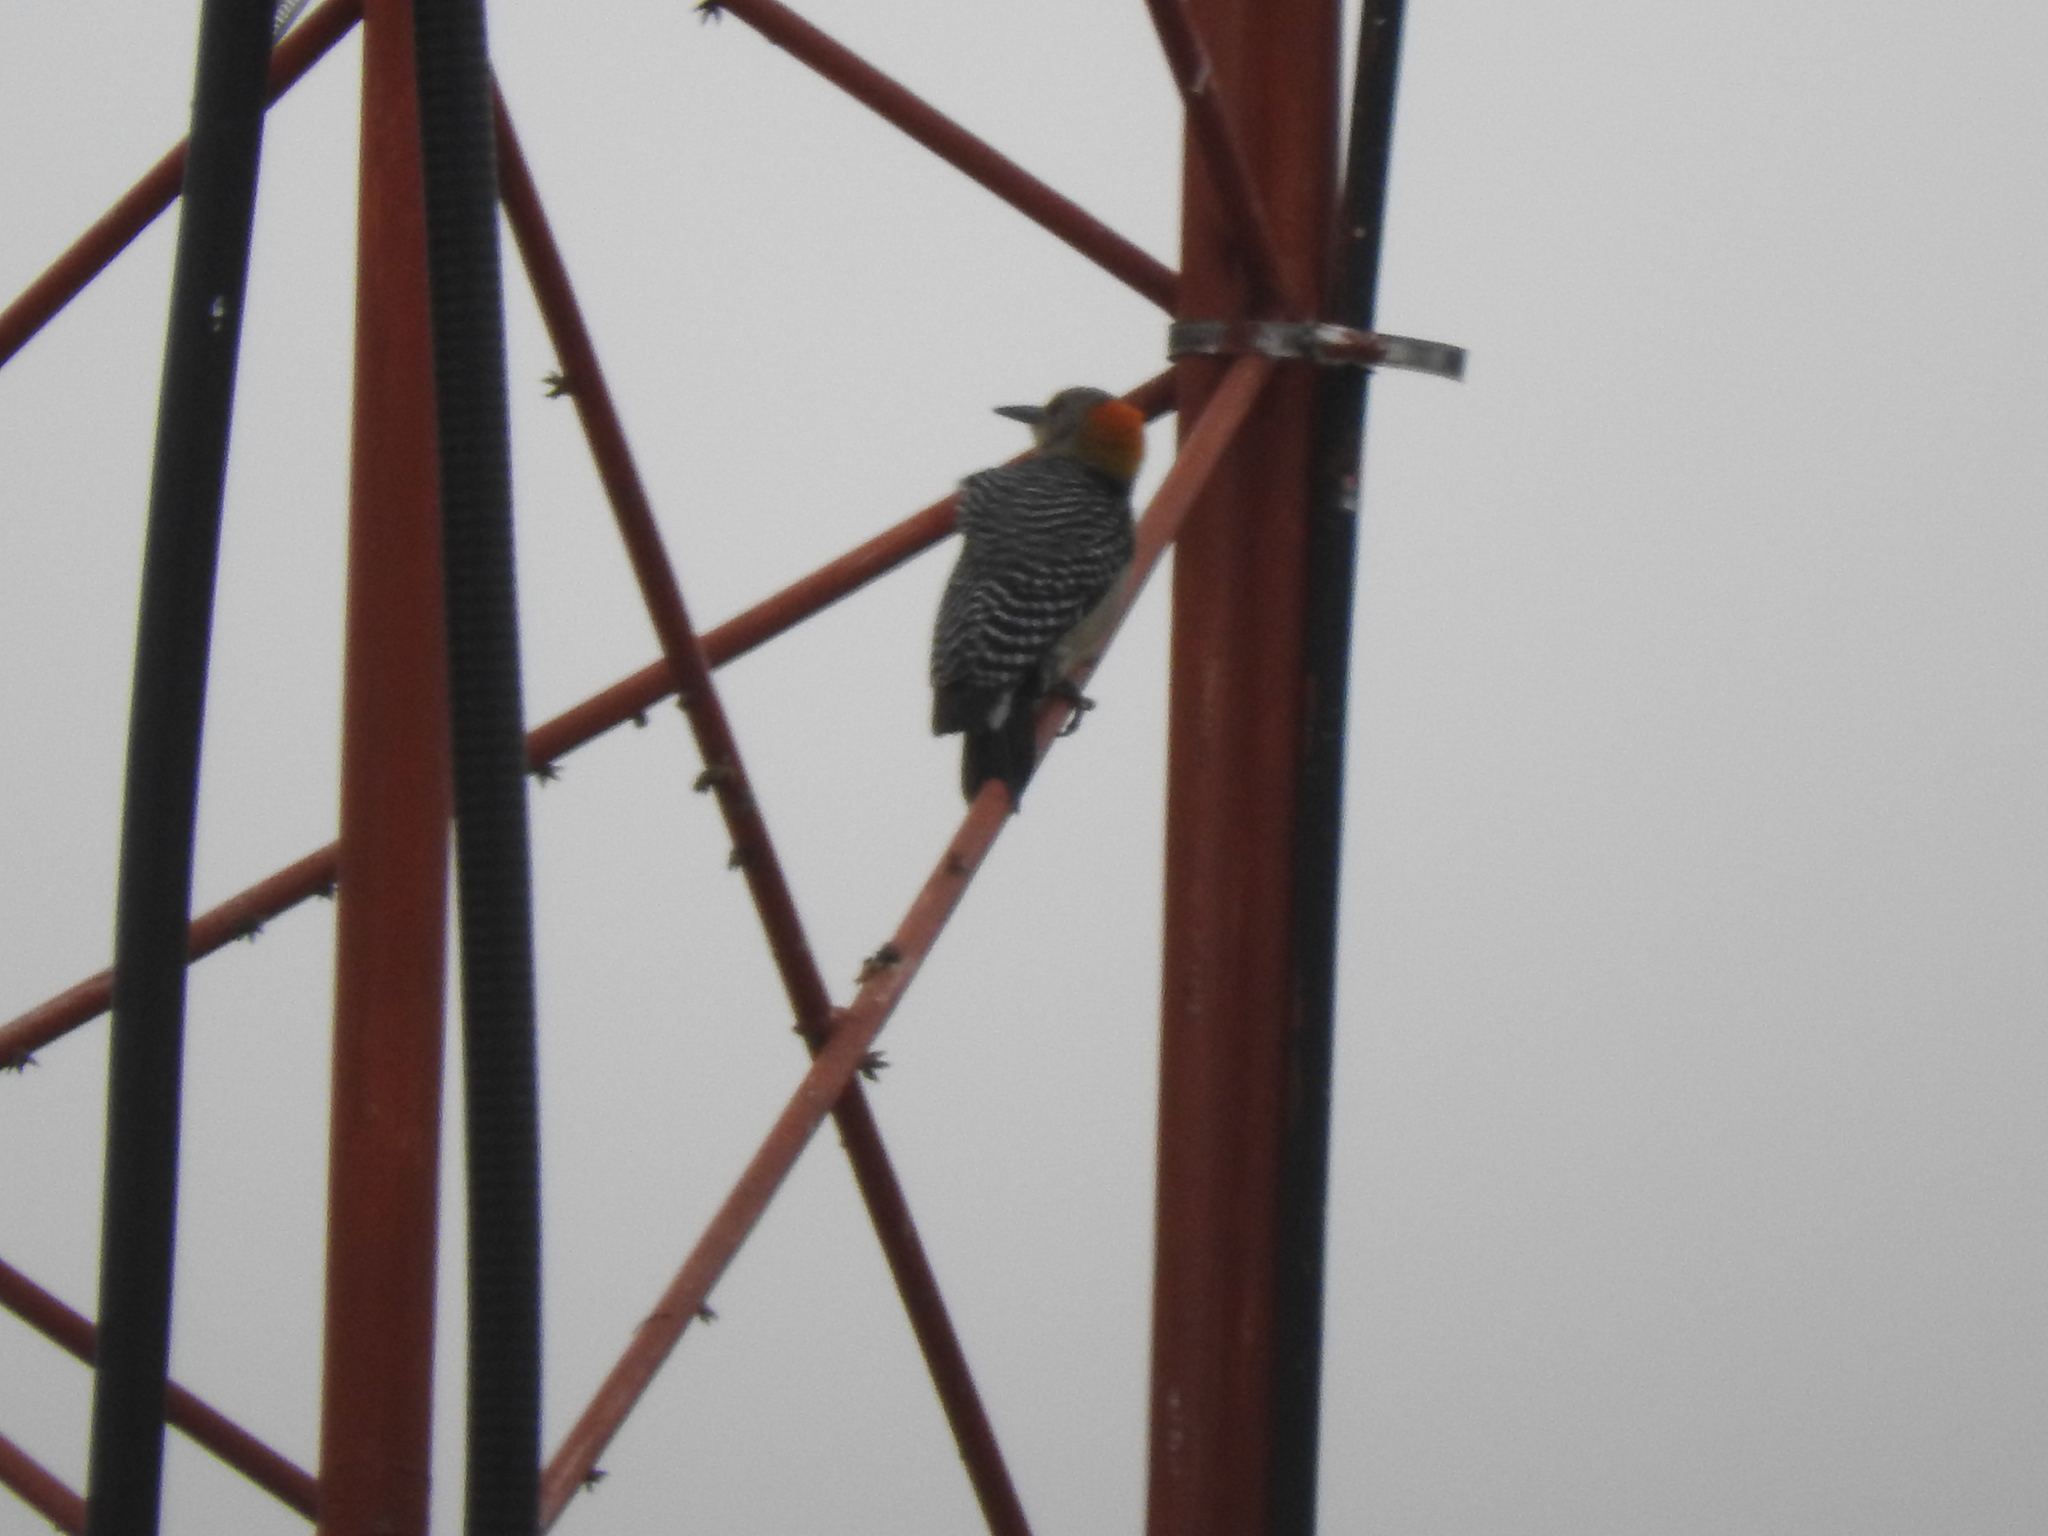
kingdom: Animalia
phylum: Chordata
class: Aves
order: Piciformes
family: Picidae
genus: Melanerpes
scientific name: Melanerpes aurifrons
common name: Golden-fronted woodpecker
